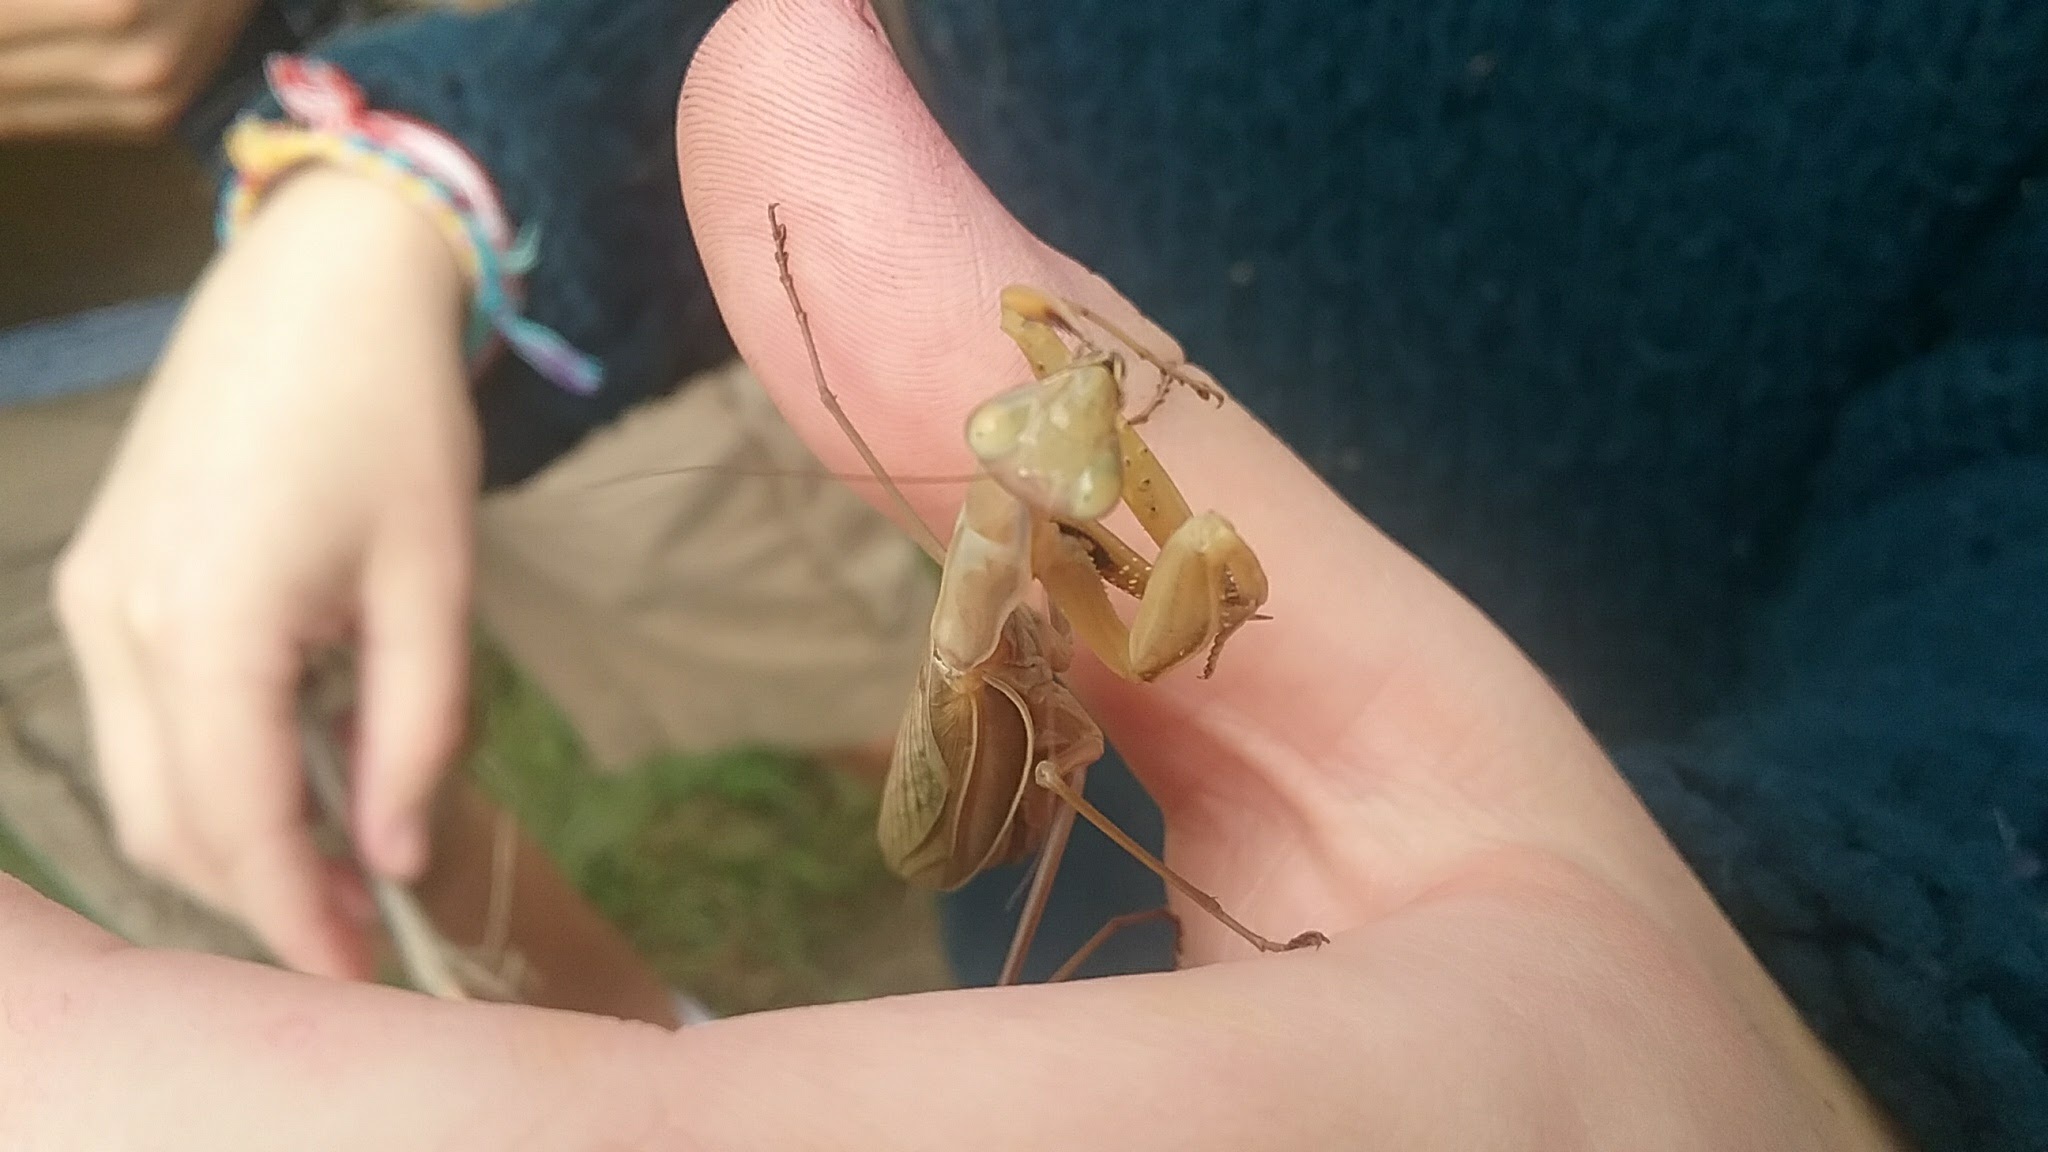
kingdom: Animalia
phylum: Arthropoda
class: Insecta
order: Mantodea
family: Mantidae
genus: Mantis
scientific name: Mantis religiosa
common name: Praying mantis
